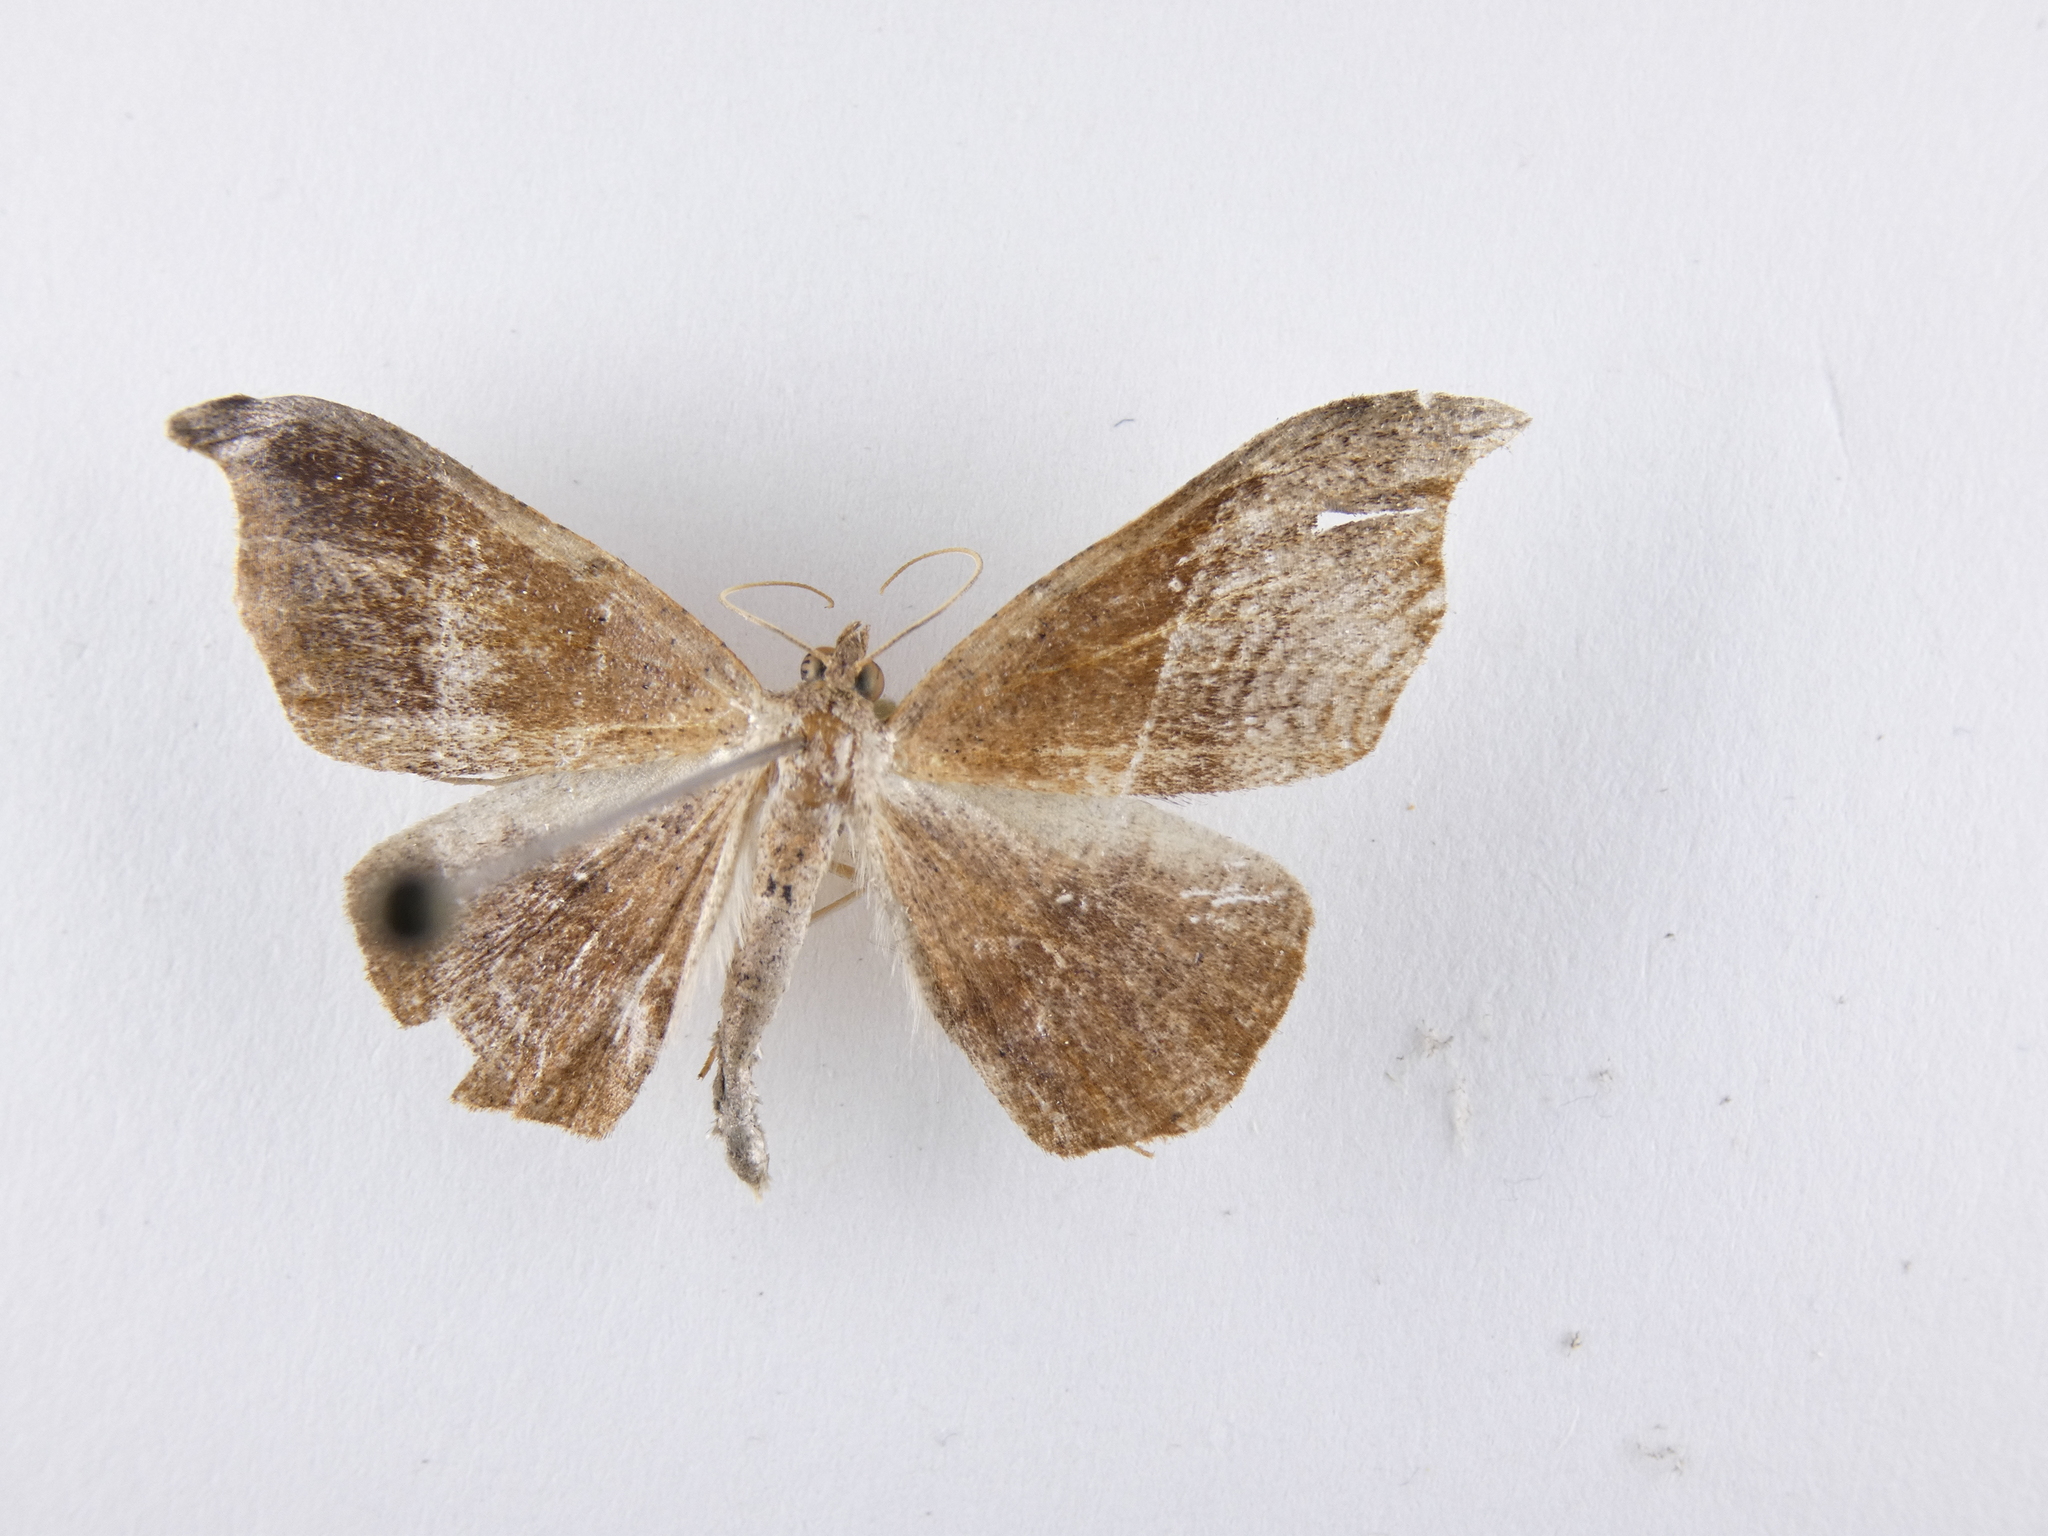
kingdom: Animalia
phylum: Arthropoda
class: Insecta
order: Lepidoptera
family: Geometridae
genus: Sarisa
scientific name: Sarisa muriferata
